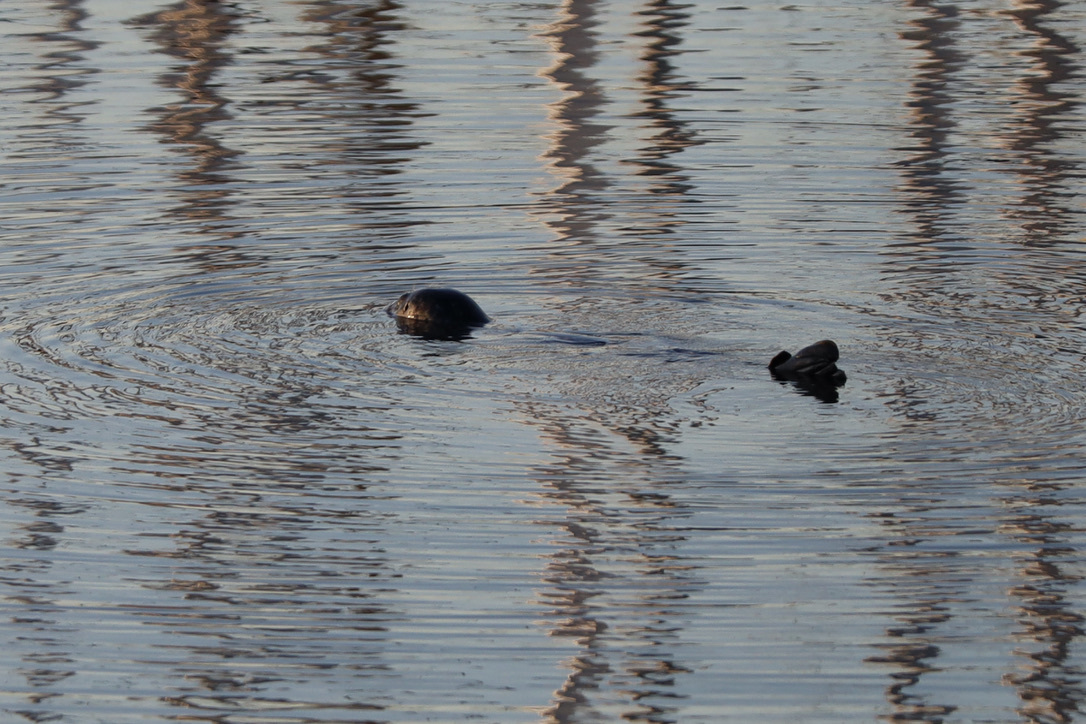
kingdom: Animalia
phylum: Chordata
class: Mammalia
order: Carnivora
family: Phocidae
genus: Phoca
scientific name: Phoca vitulina
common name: Harbor seal
